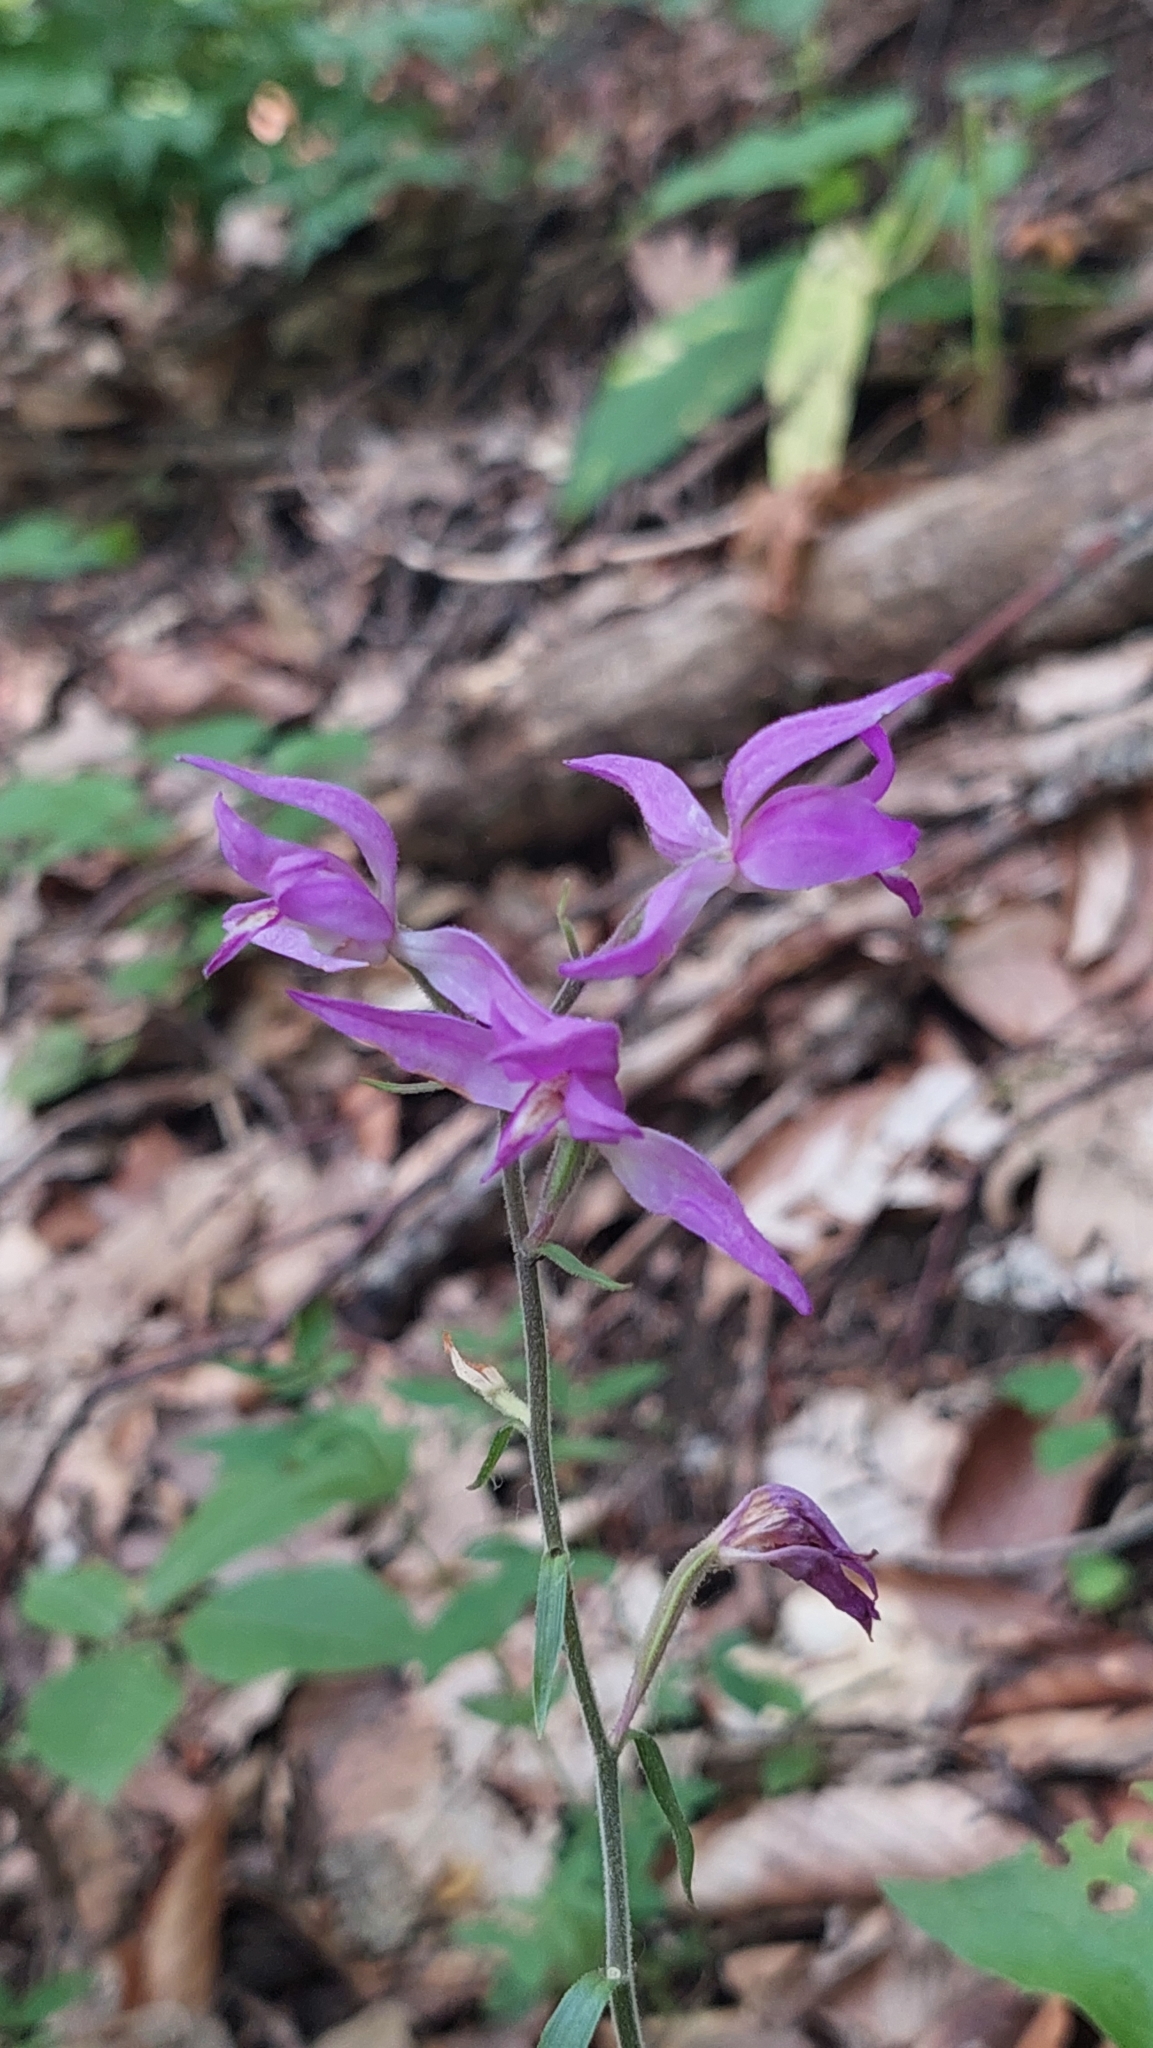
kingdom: Plantae
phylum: Tracheophyta
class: Liliopsida
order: Asparagales
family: Orchidaceae
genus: Cephalanthera
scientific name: Cephalanthera rubra
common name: Red helleborine
